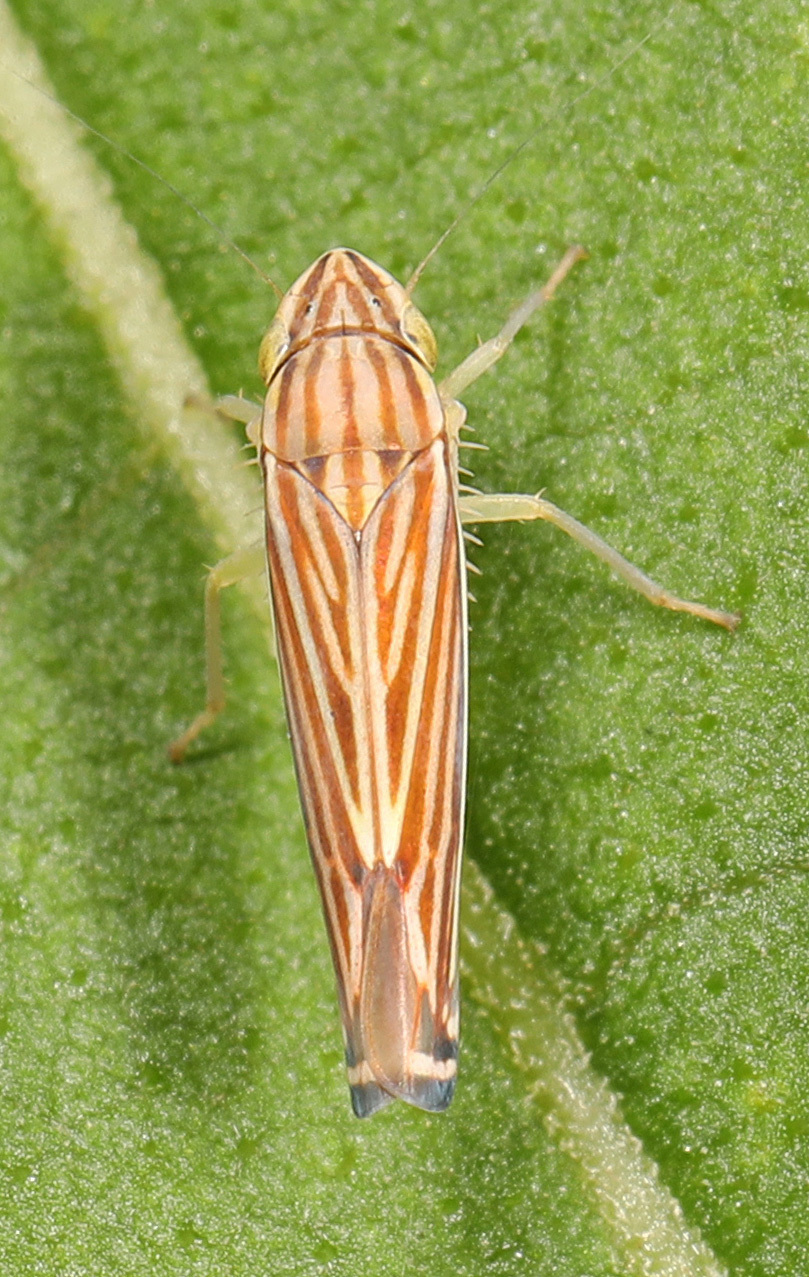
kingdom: Animalia
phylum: Arthropoda
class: Insecta
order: Hemiptera
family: Cicadellidae
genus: Sibovia
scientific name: Sibovia occatoria
